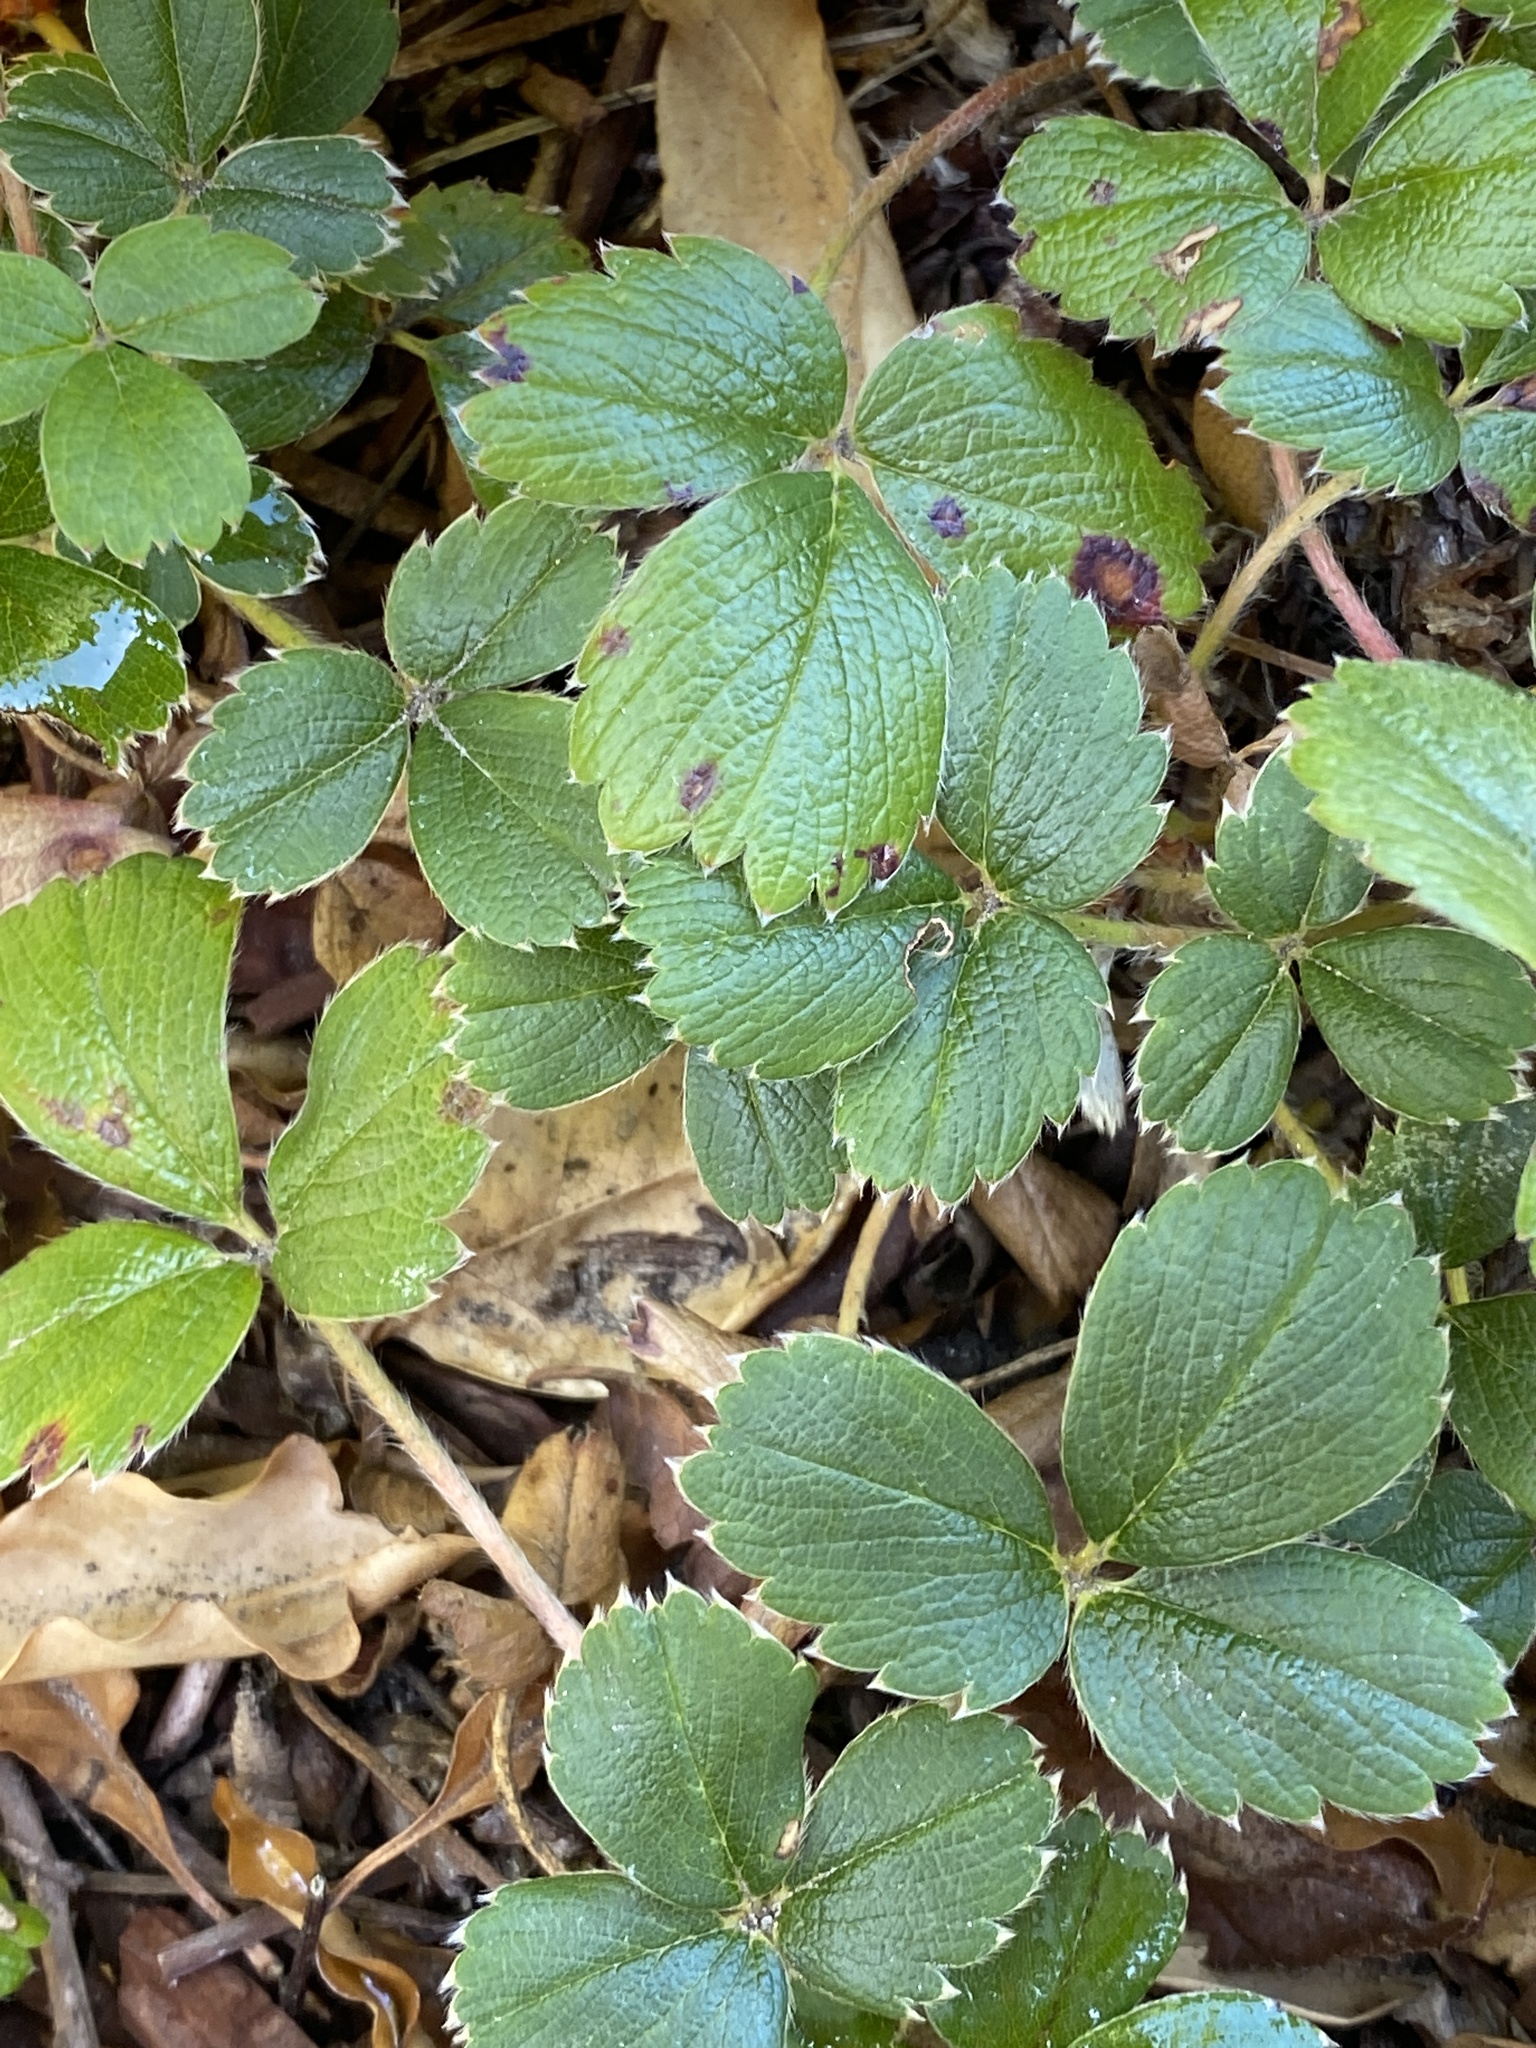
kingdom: Plantae
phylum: Tracheophyta
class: Magnoliopsida
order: Rosales
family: Rosaceae
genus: Fragaria
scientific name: Fragaria chiloensis
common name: Beach strawberry
